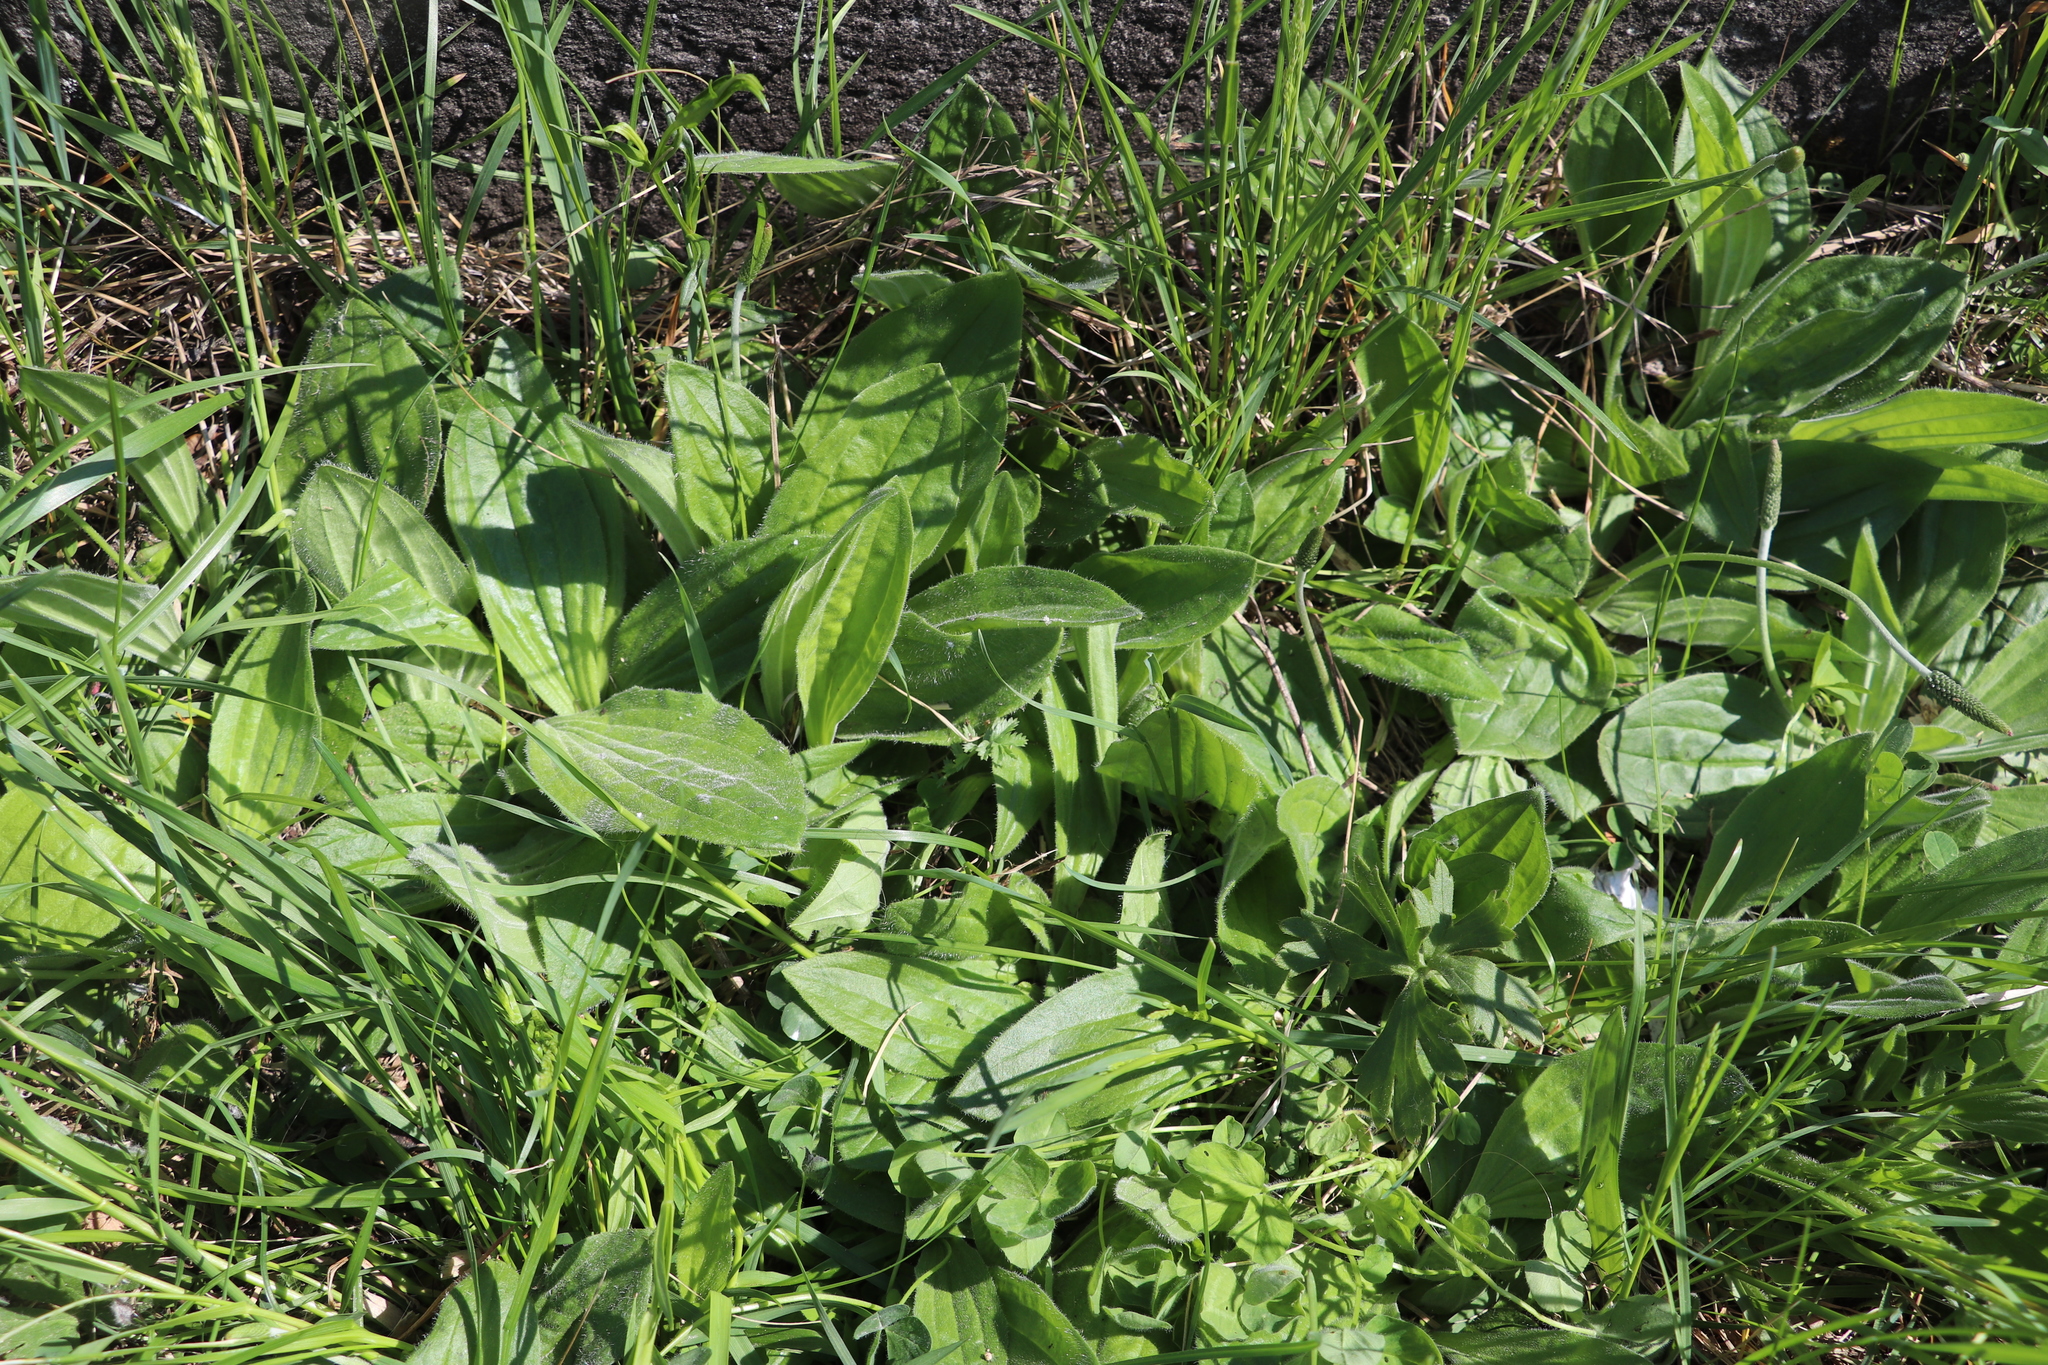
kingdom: Plantae
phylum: Tracheophyta
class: Magnoliopsida
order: Lamiales
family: Plantaginaceae
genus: Plantago
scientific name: Plantago media
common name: Hoary plantain
